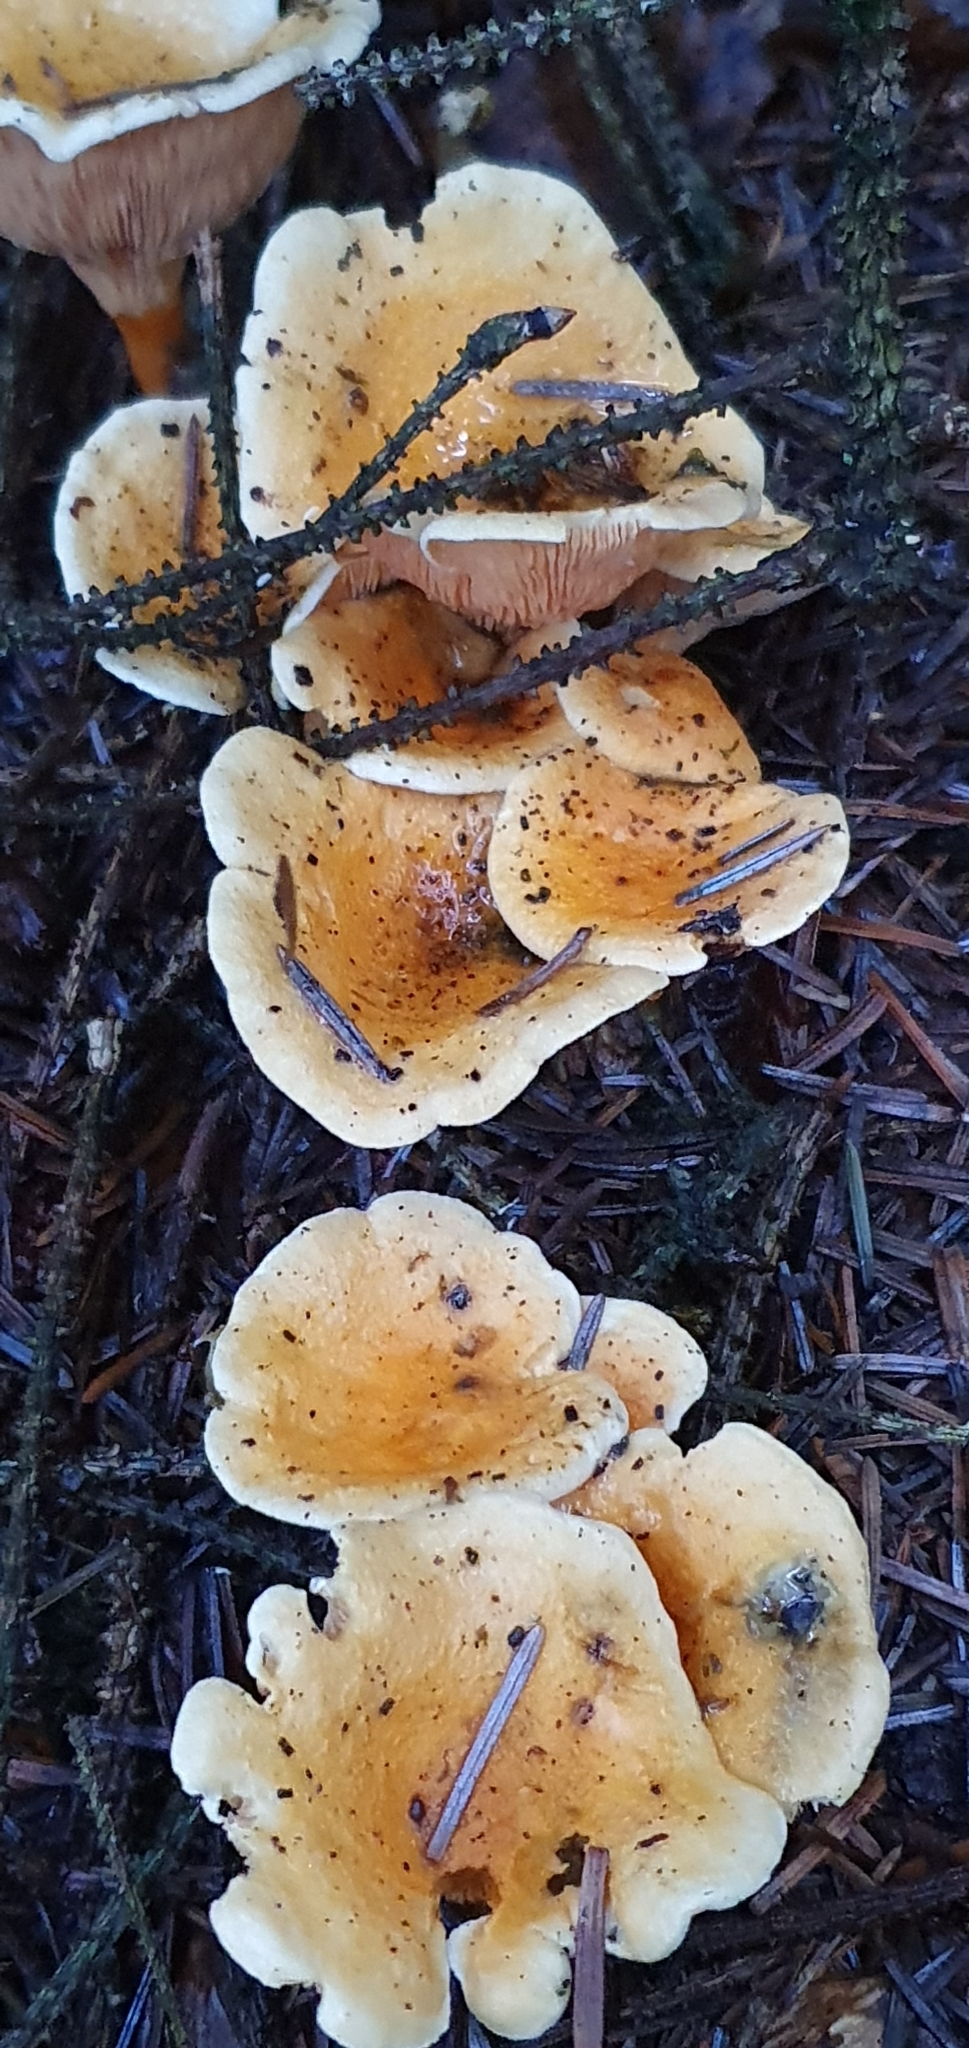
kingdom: Fungi
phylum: Basidiomycota
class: Agaricomycetes
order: Boletales
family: Hygrophoropsidaceae
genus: Hygrophoropsis
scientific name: Hygrophoropsis aurantiaca
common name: False chanterelle
